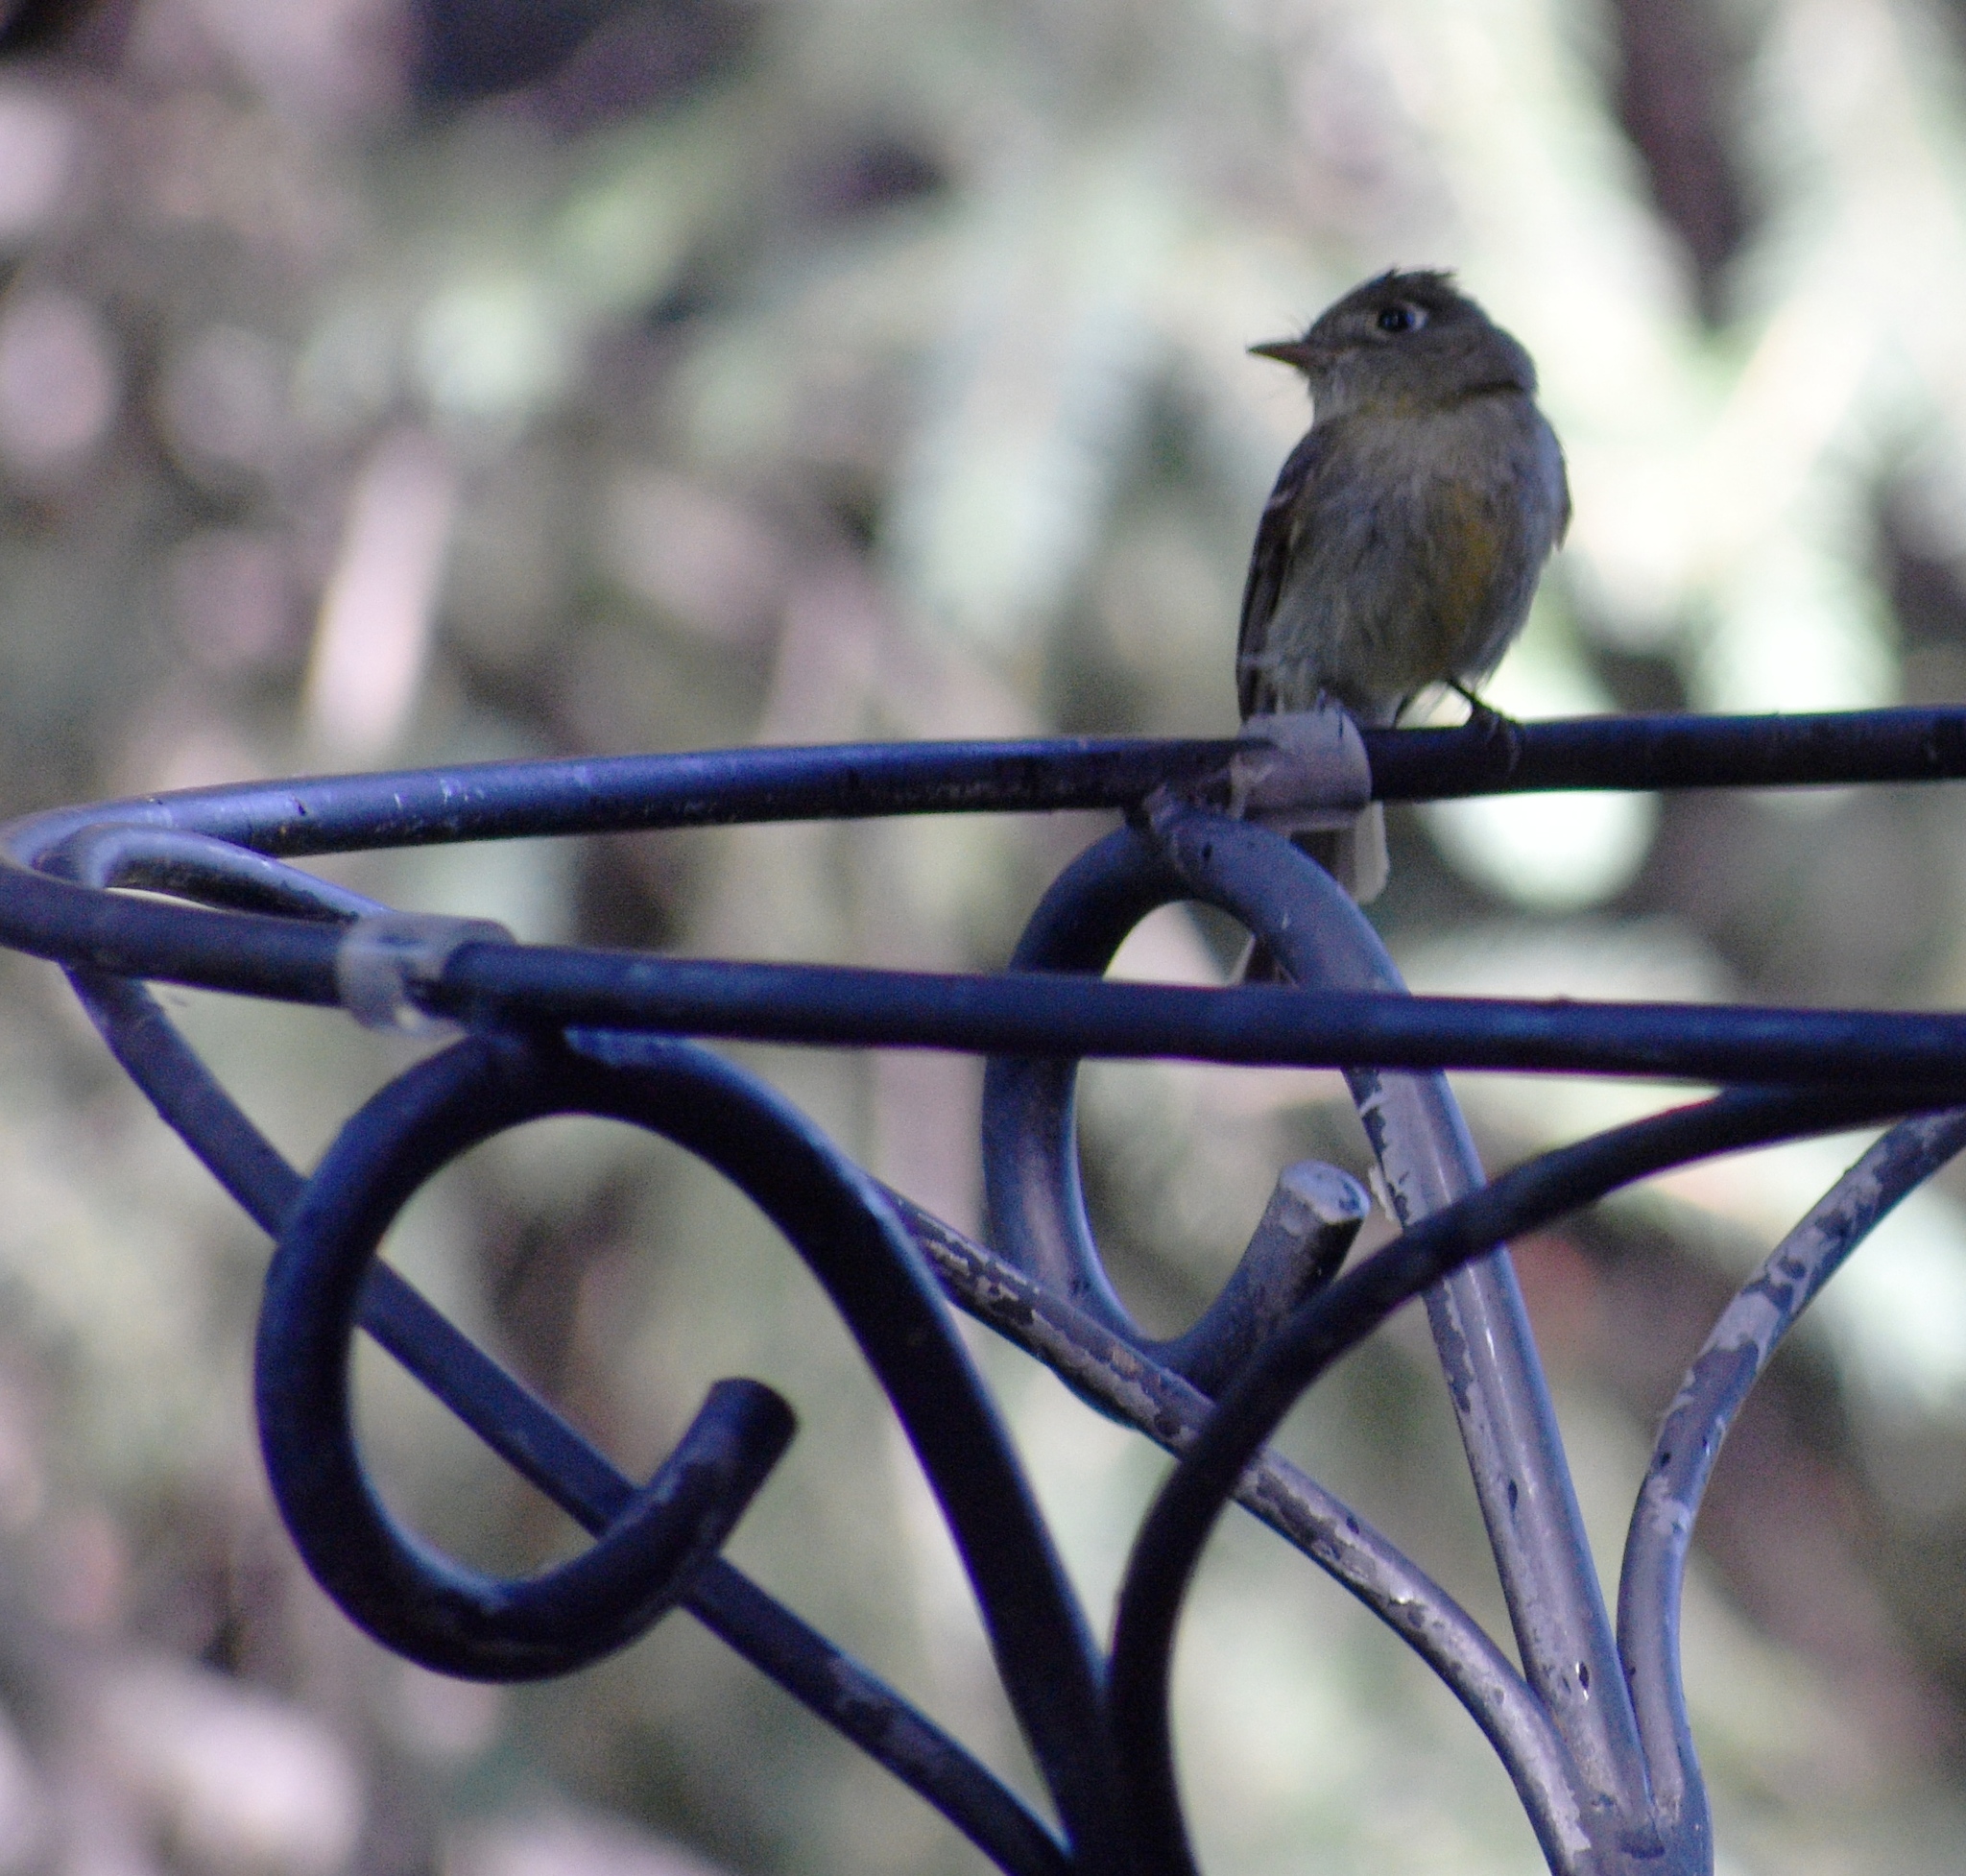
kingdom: Animalia
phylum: Chordata
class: Aves
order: Passeriformes
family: Tyrannidae
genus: Empidonax
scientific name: Empidonax difficilis
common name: Pacific-slope flycatcher
